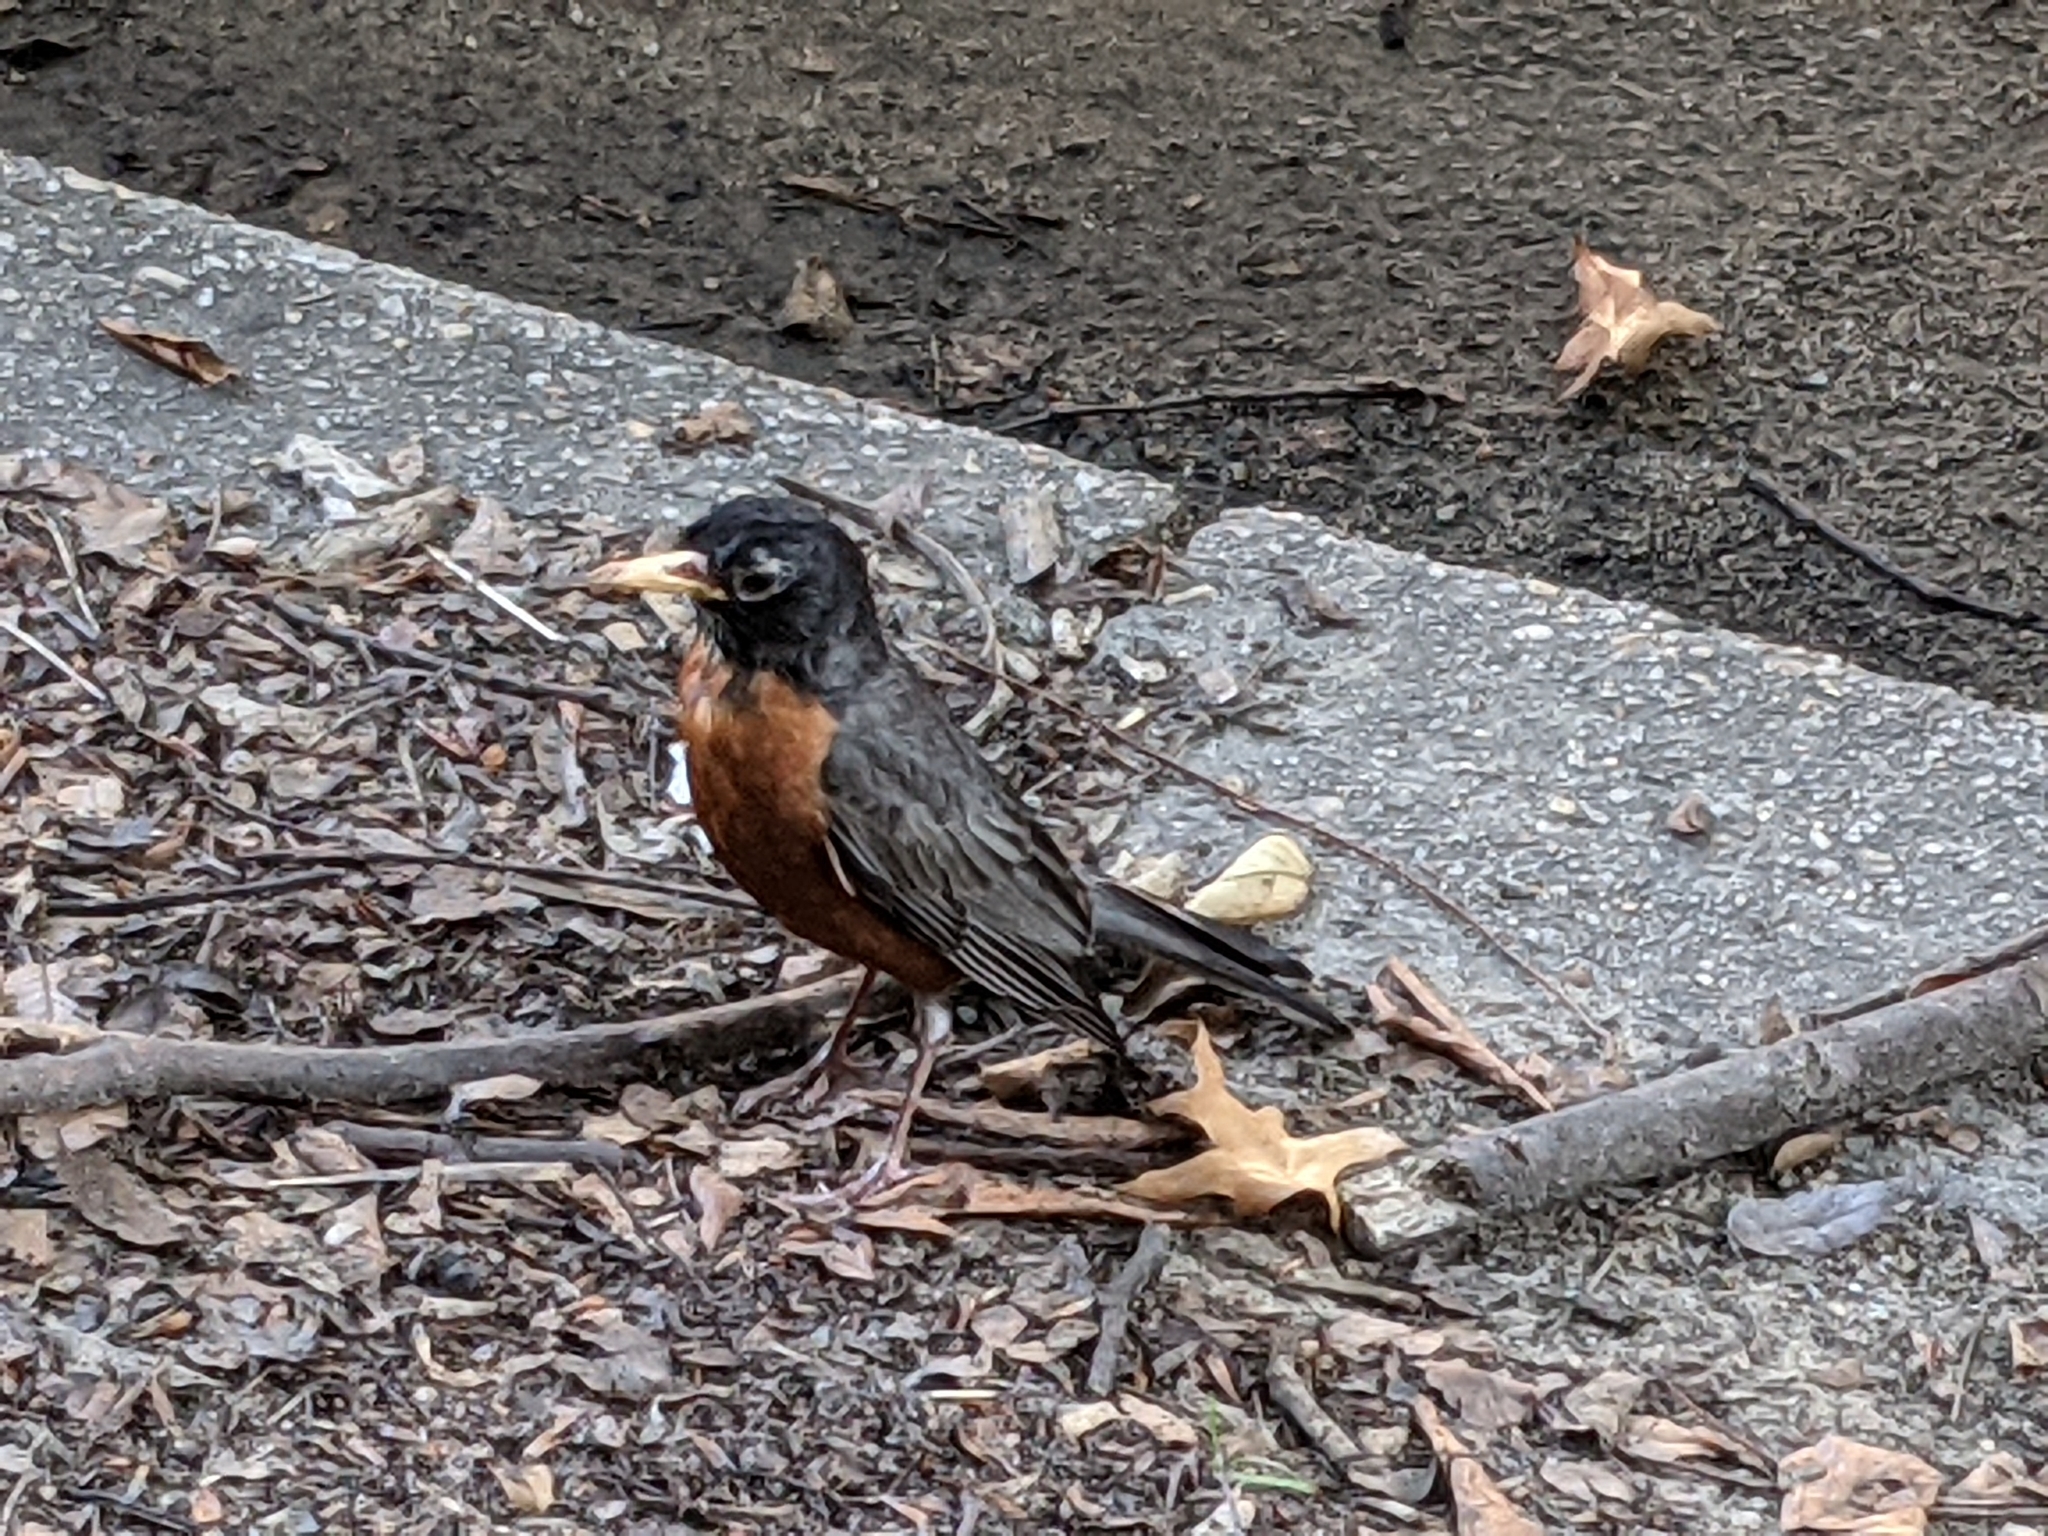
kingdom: Animalia
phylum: Chordata
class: Aves
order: Passeriformes
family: Turdidae
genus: Turdus
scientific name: Turdus migratorius
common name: American robin
